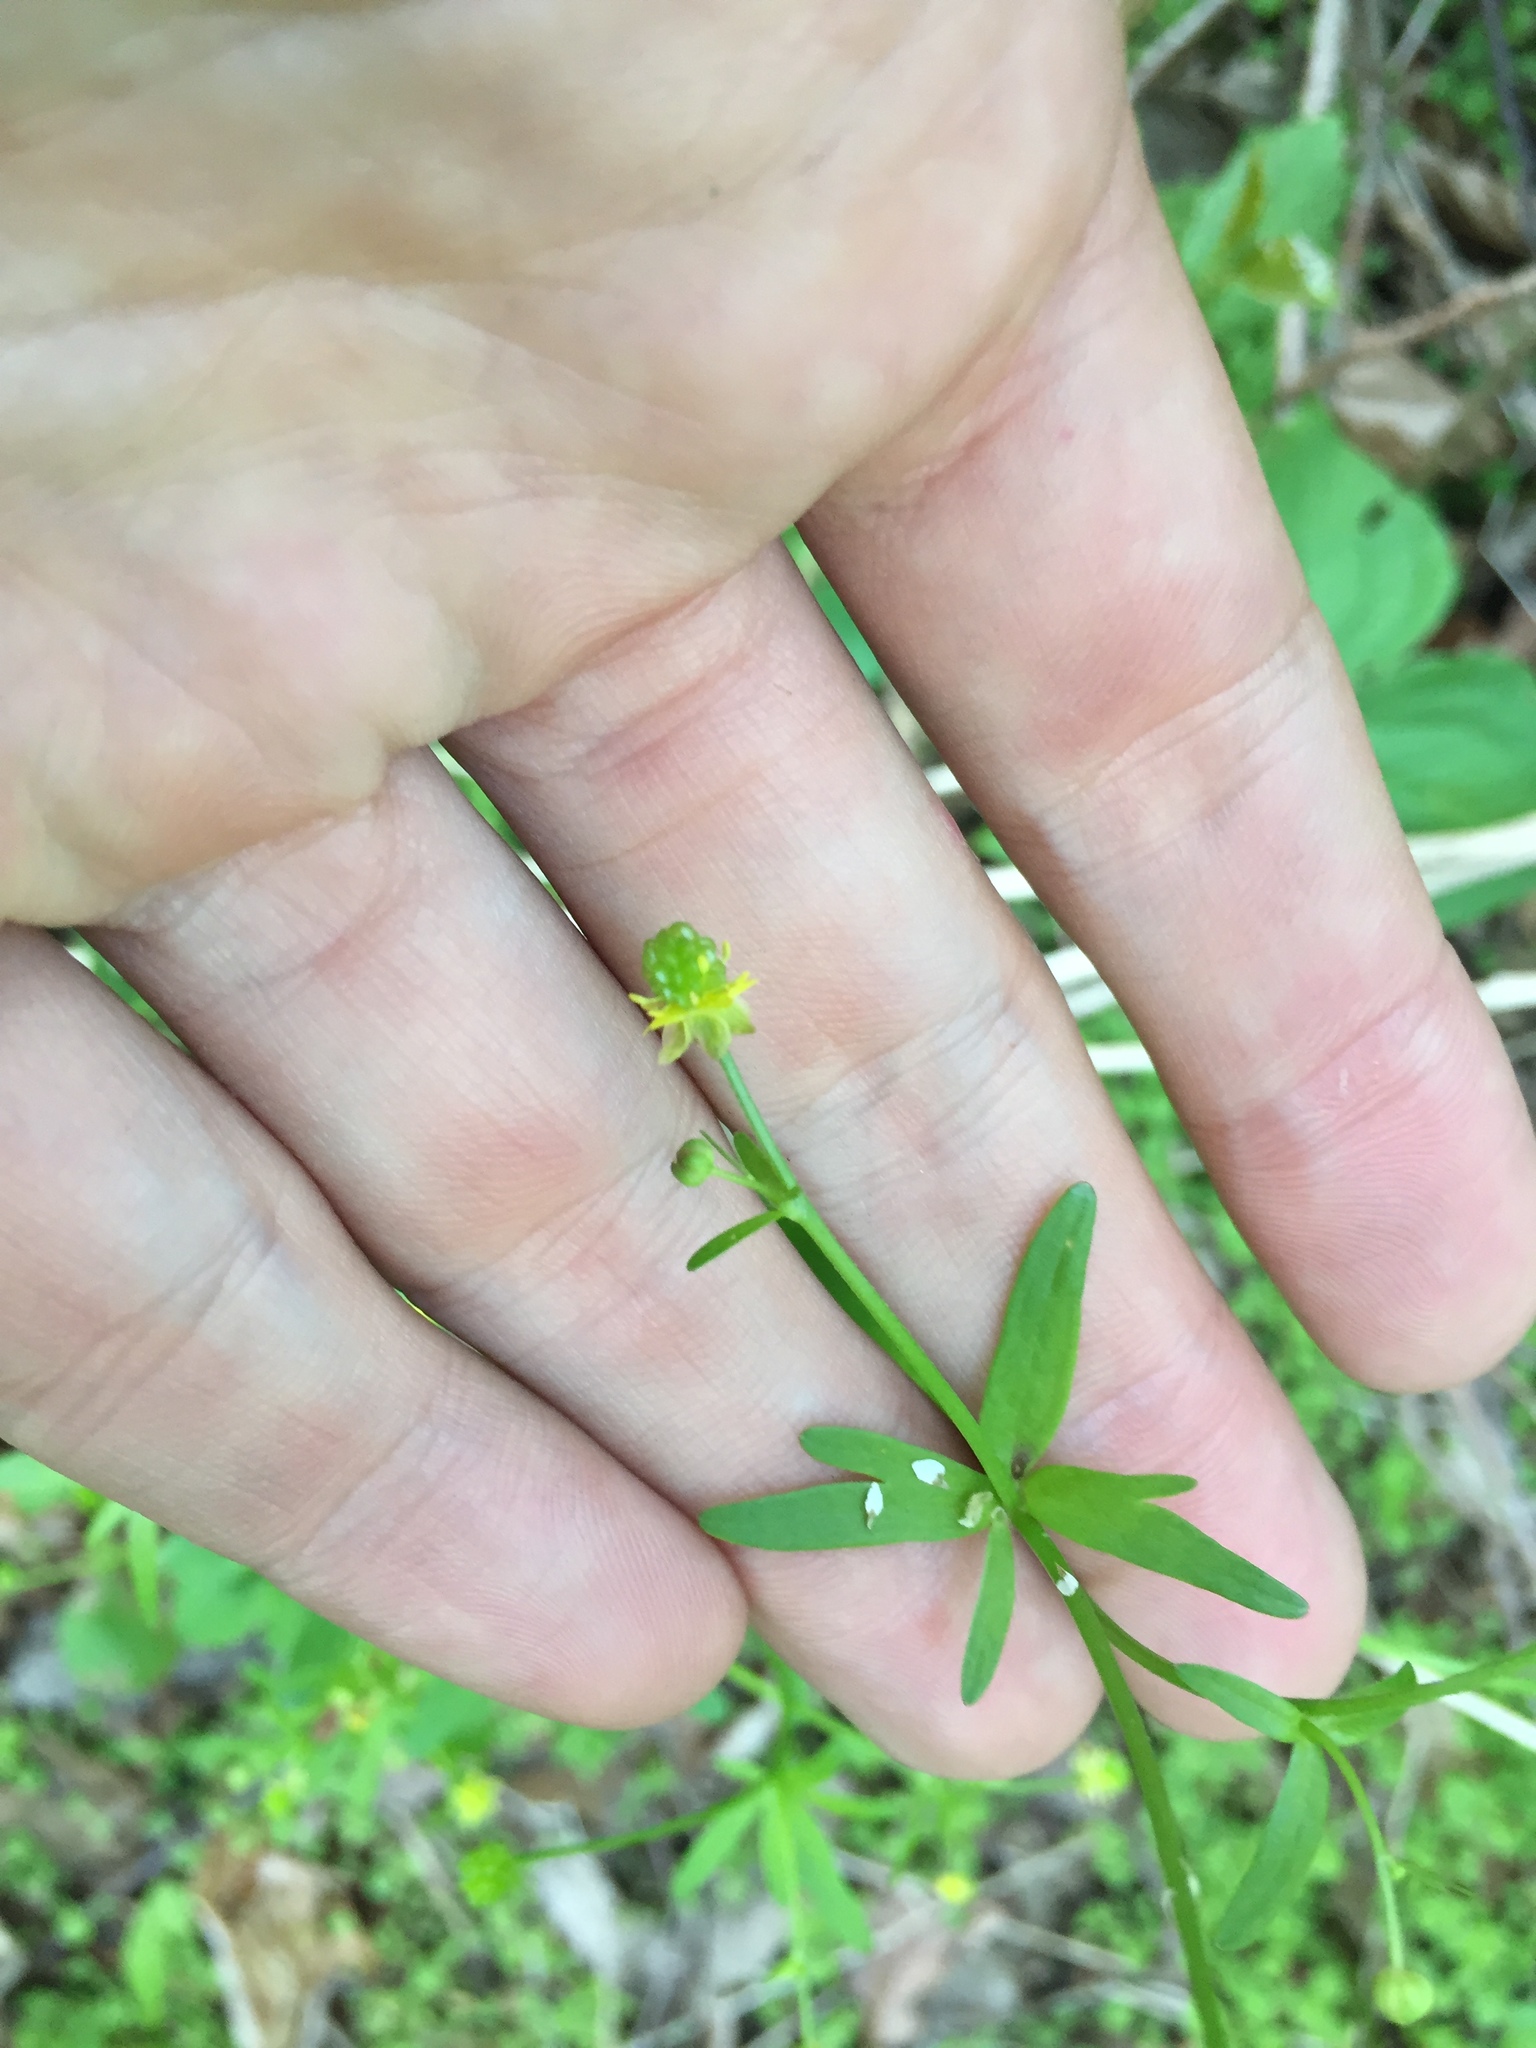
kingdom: Plantae
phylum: Tracheophyta
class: Magnoliopsida
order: Ranunculales
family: Ranunculaceae
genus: Ranunculus
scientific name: Ranunculus abortivus
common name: Early wood buttercup
